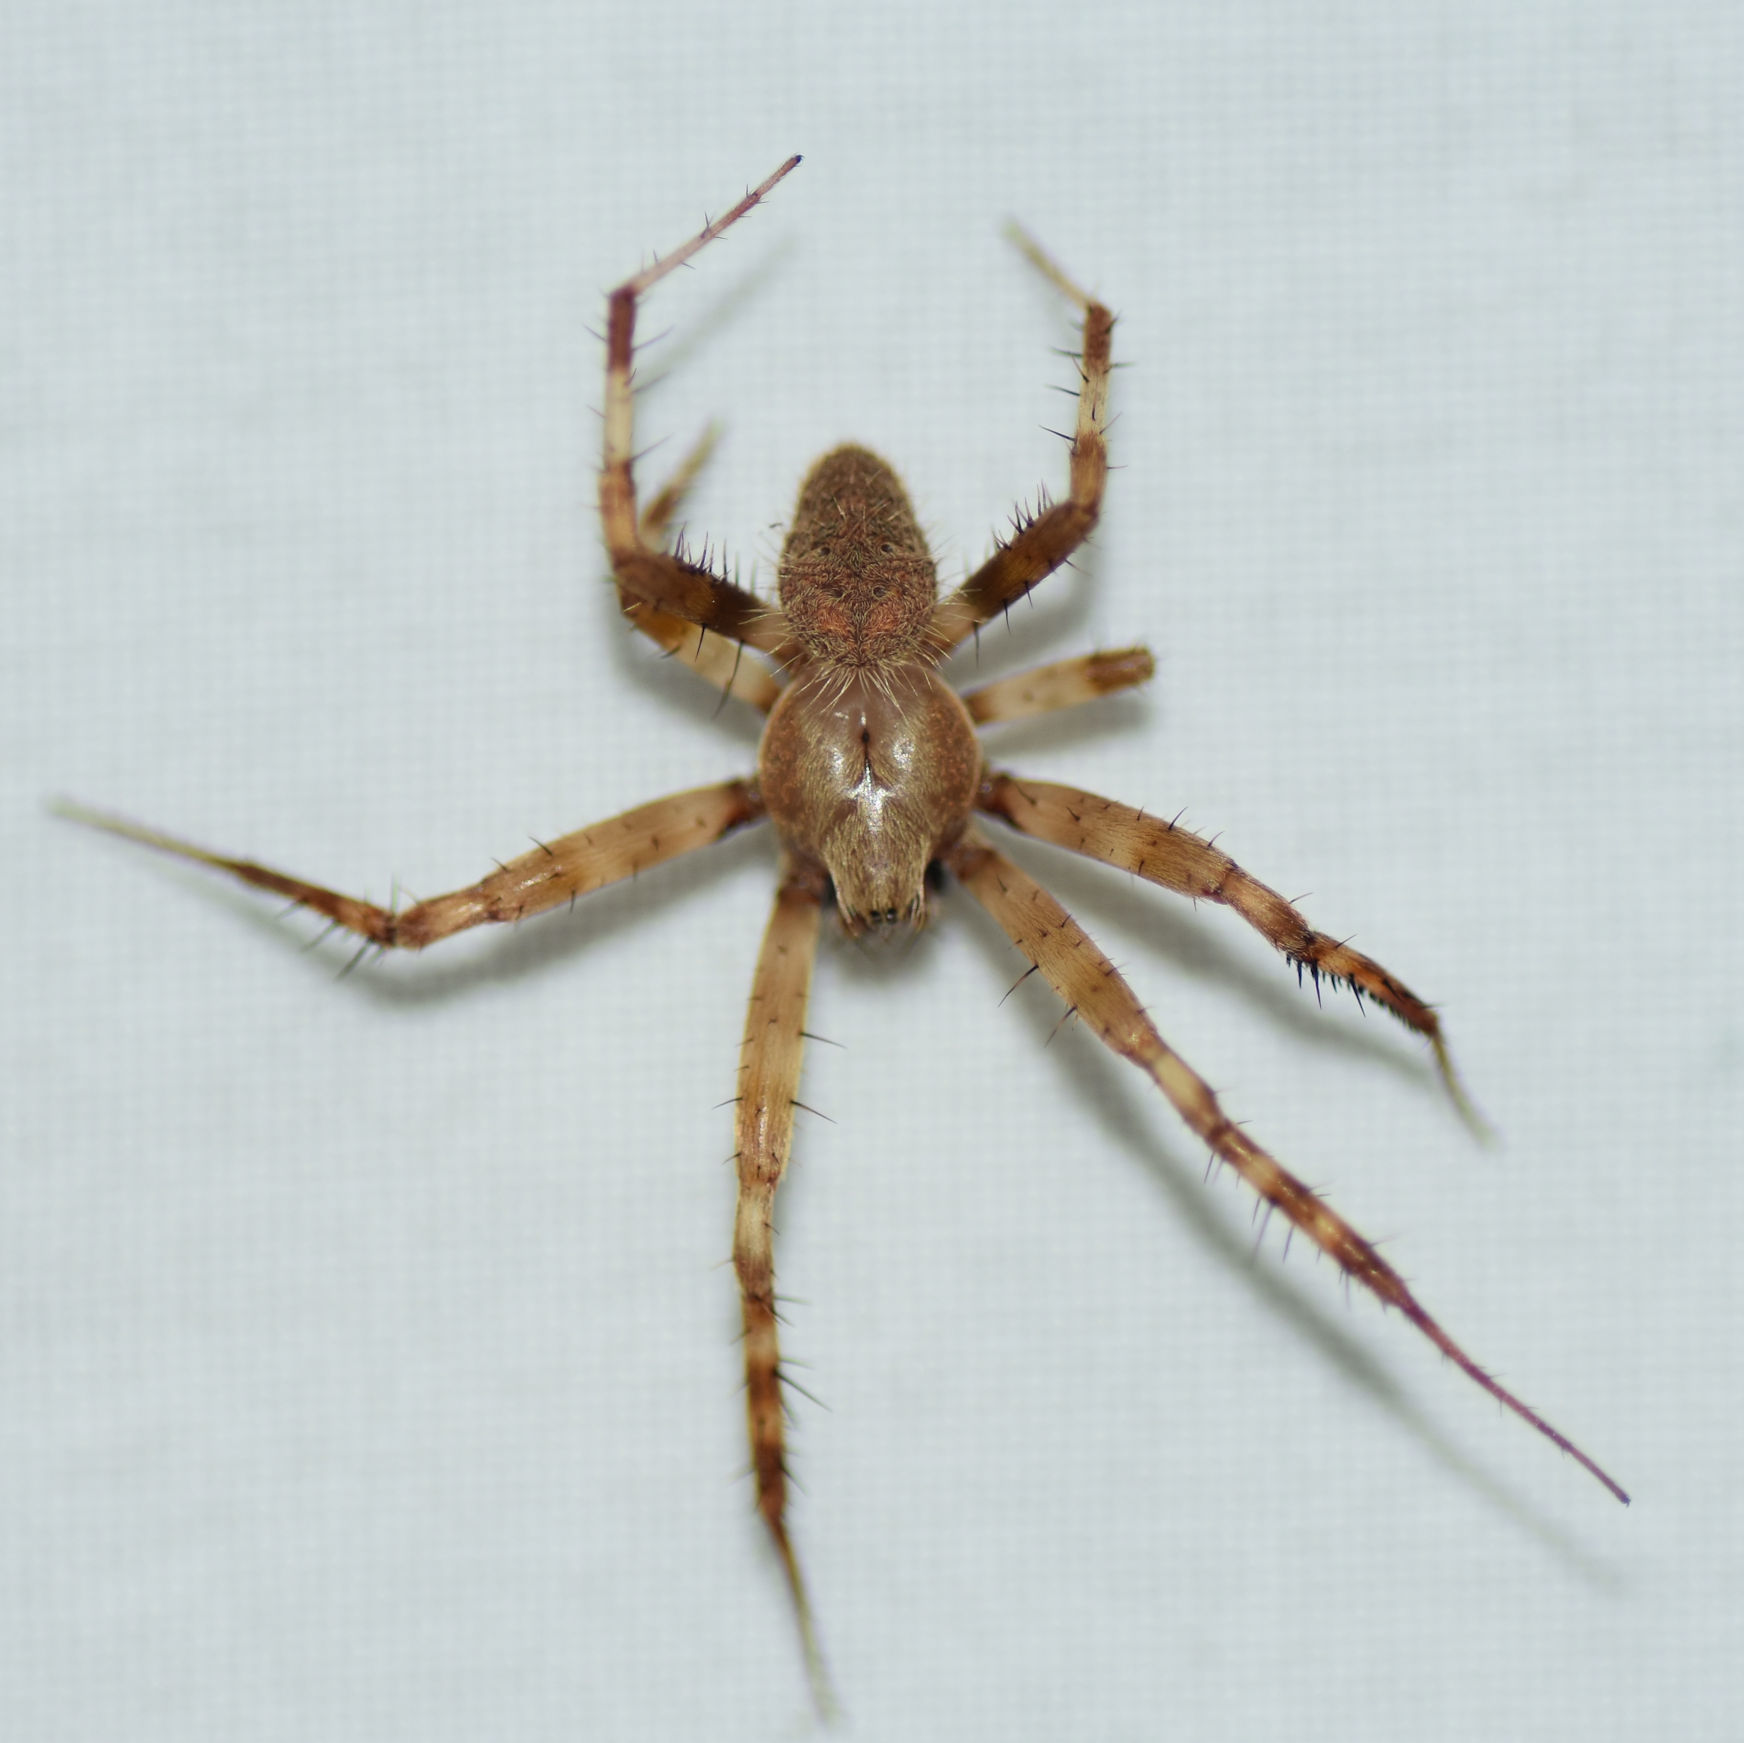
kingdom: Animalia
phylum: Arthropoda
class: Arachnida
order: Araneae
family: Araneidae
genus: Neoscona
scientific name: Neoscona crucifera
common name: Spotted orbweaver
